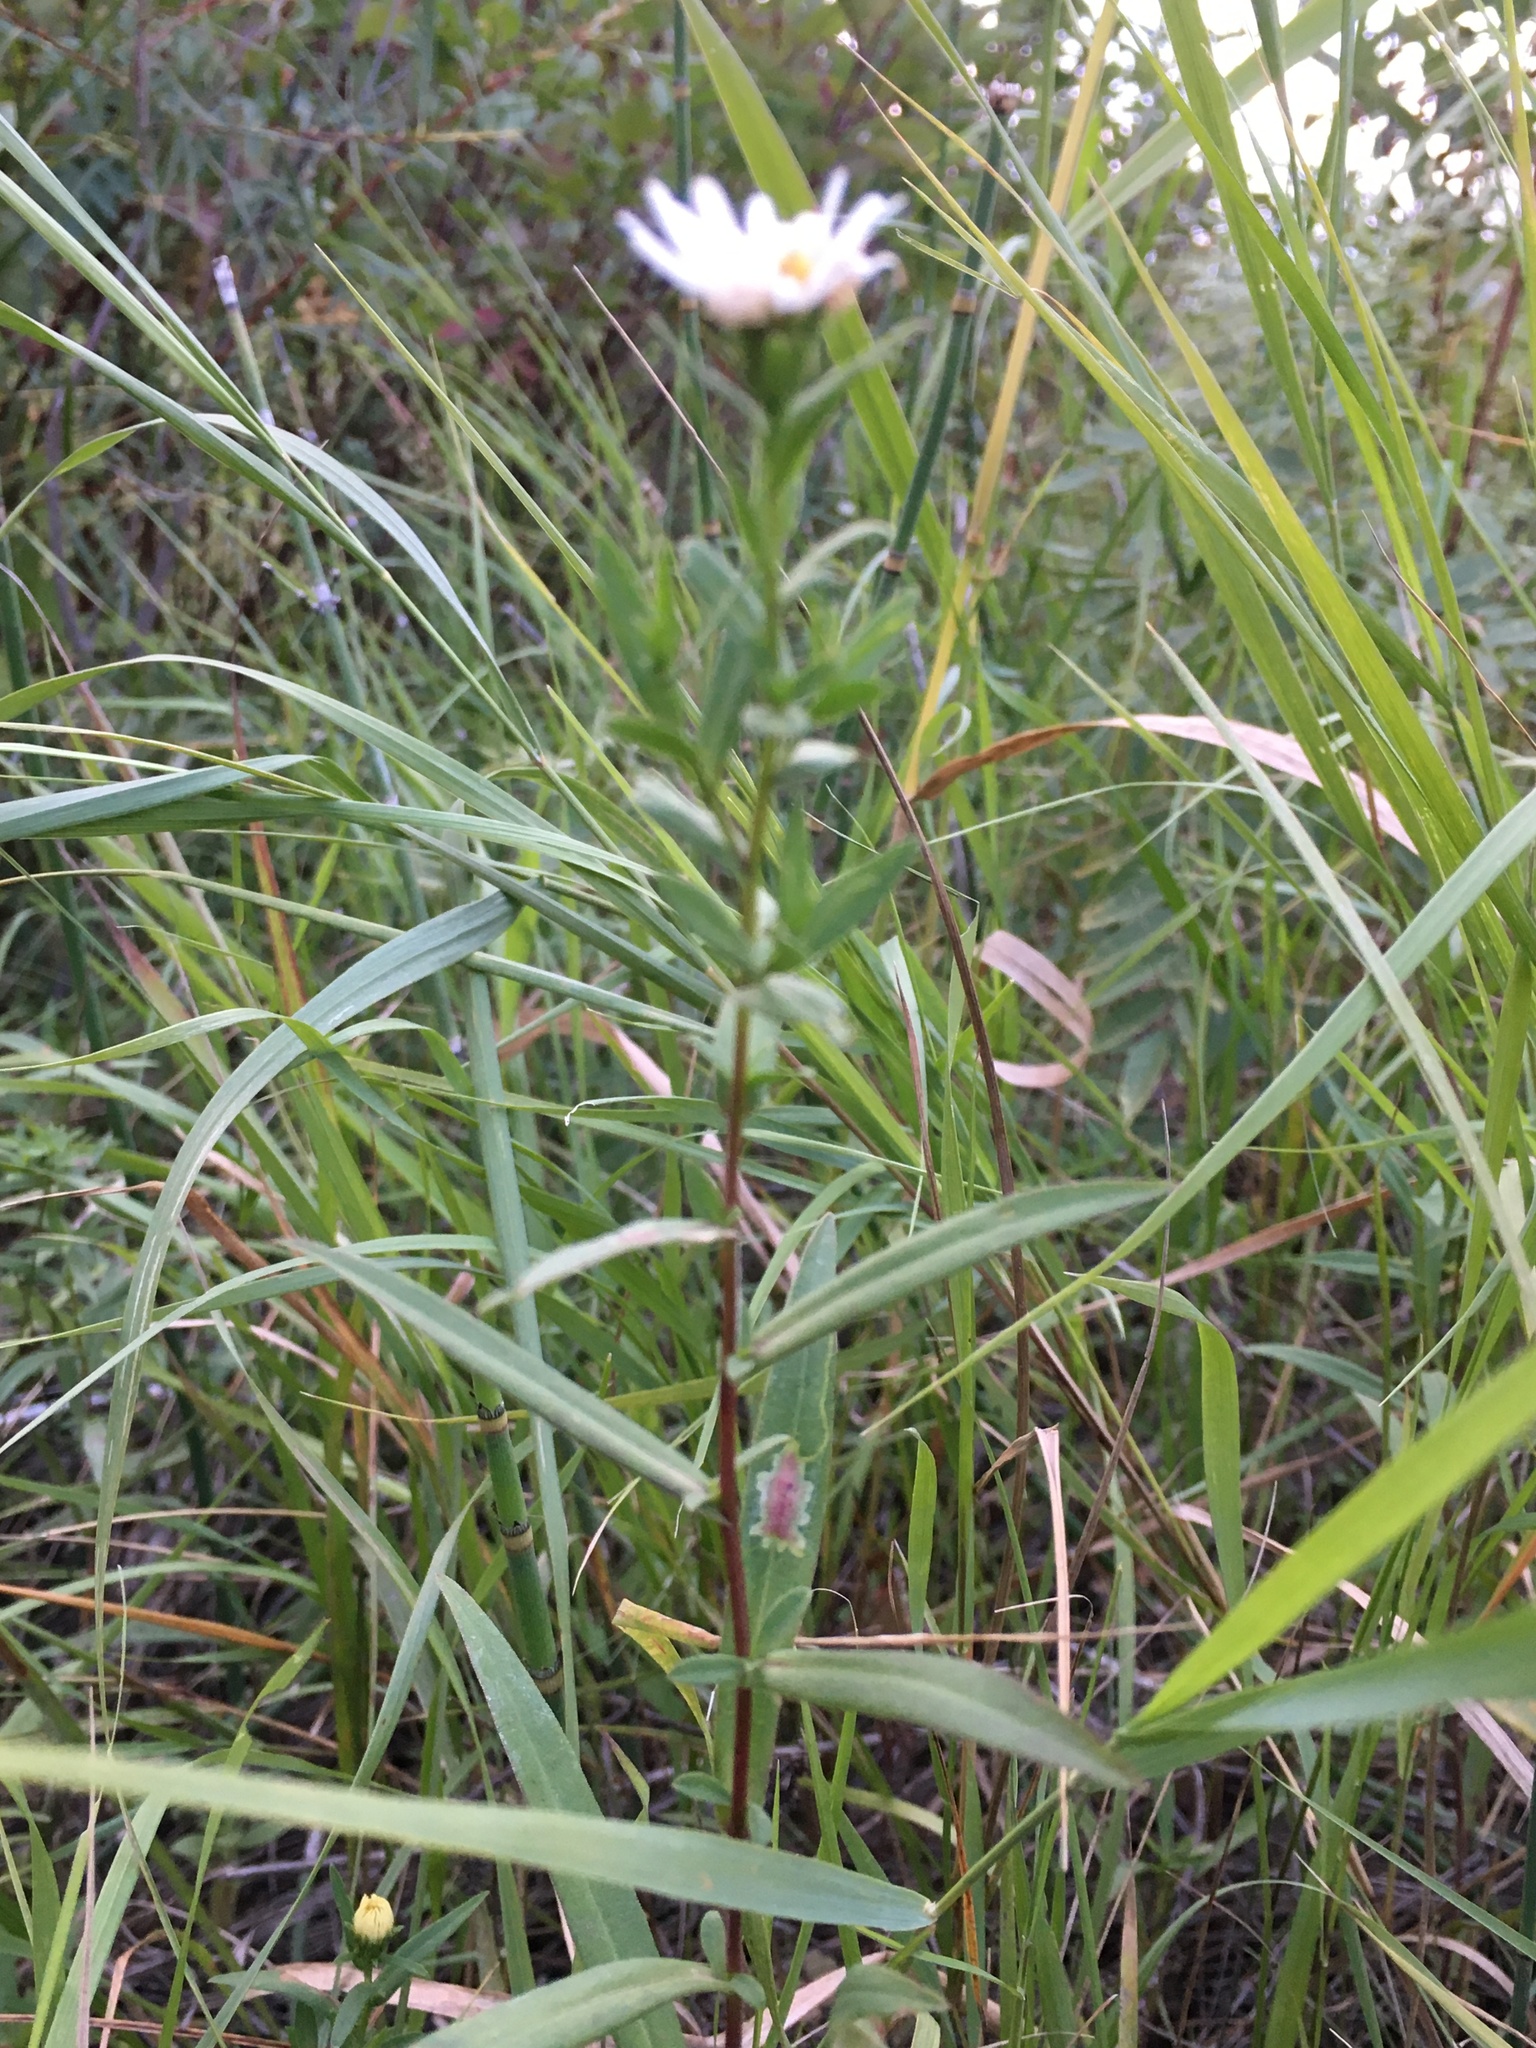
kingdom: Plantae
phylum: Tracheophyta
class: Magnoliopsida
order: Asterales
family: Asteraceae
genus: Symphyotrichum
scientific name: Symphyotrichum lanceolatum
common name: Panicled aster
